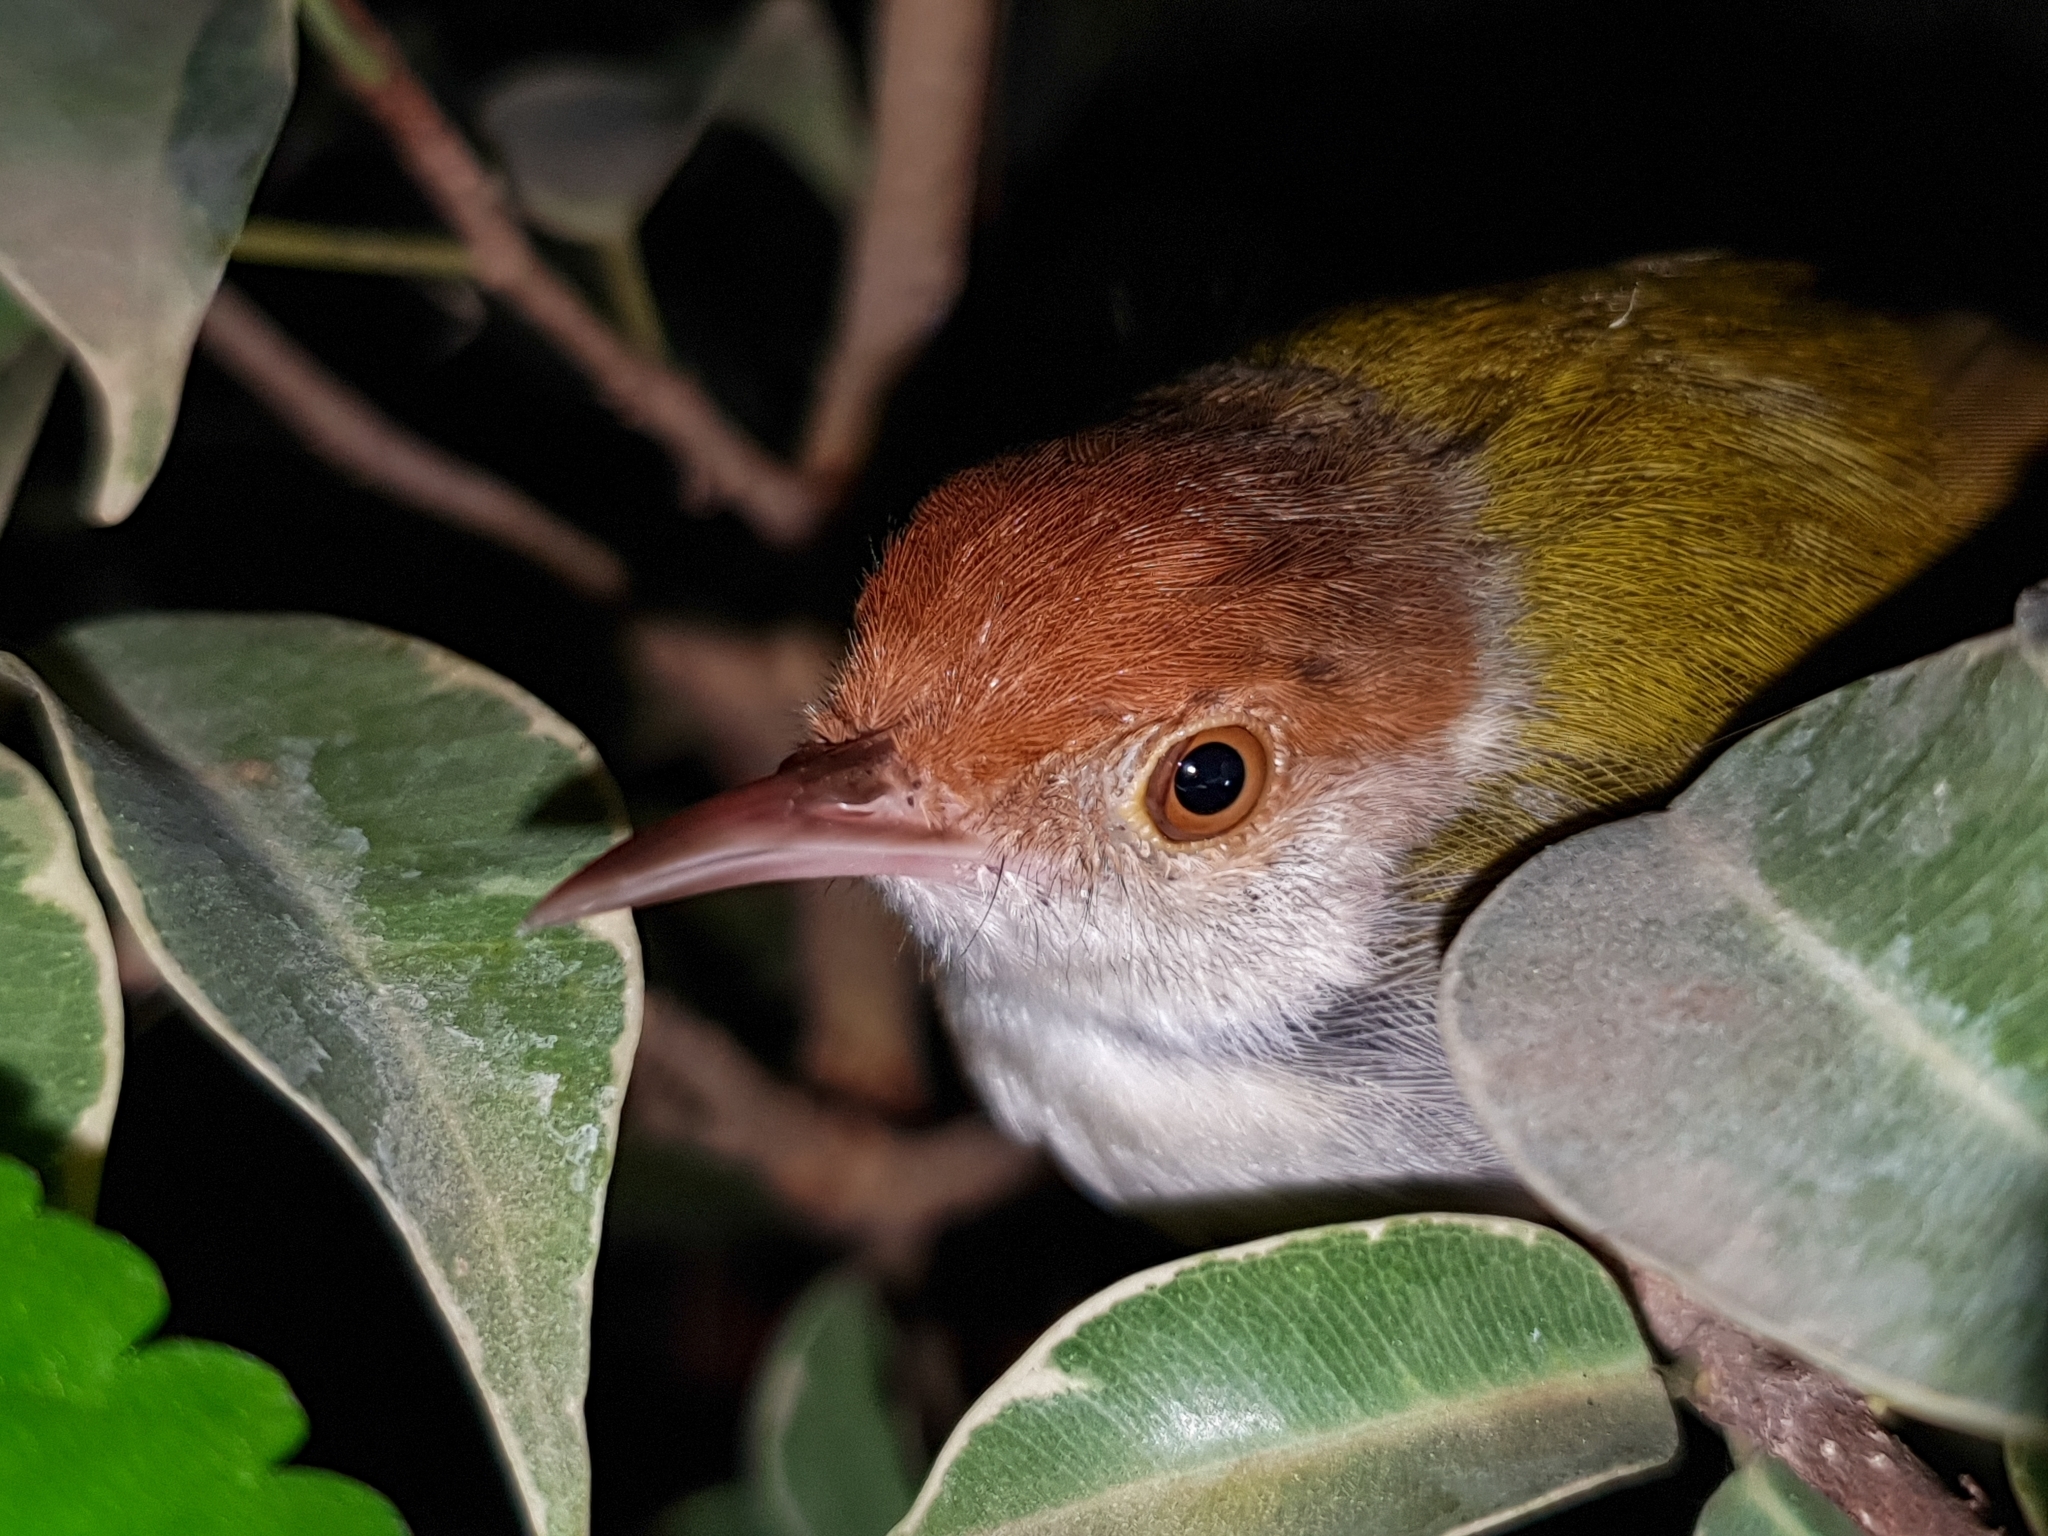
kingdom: Animalia
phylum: Chordata
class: Aves
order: Passeriformes
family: Cisticolidae
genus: Orthotomus
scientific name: Orthotomus sutorius
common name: Common tailorbird
